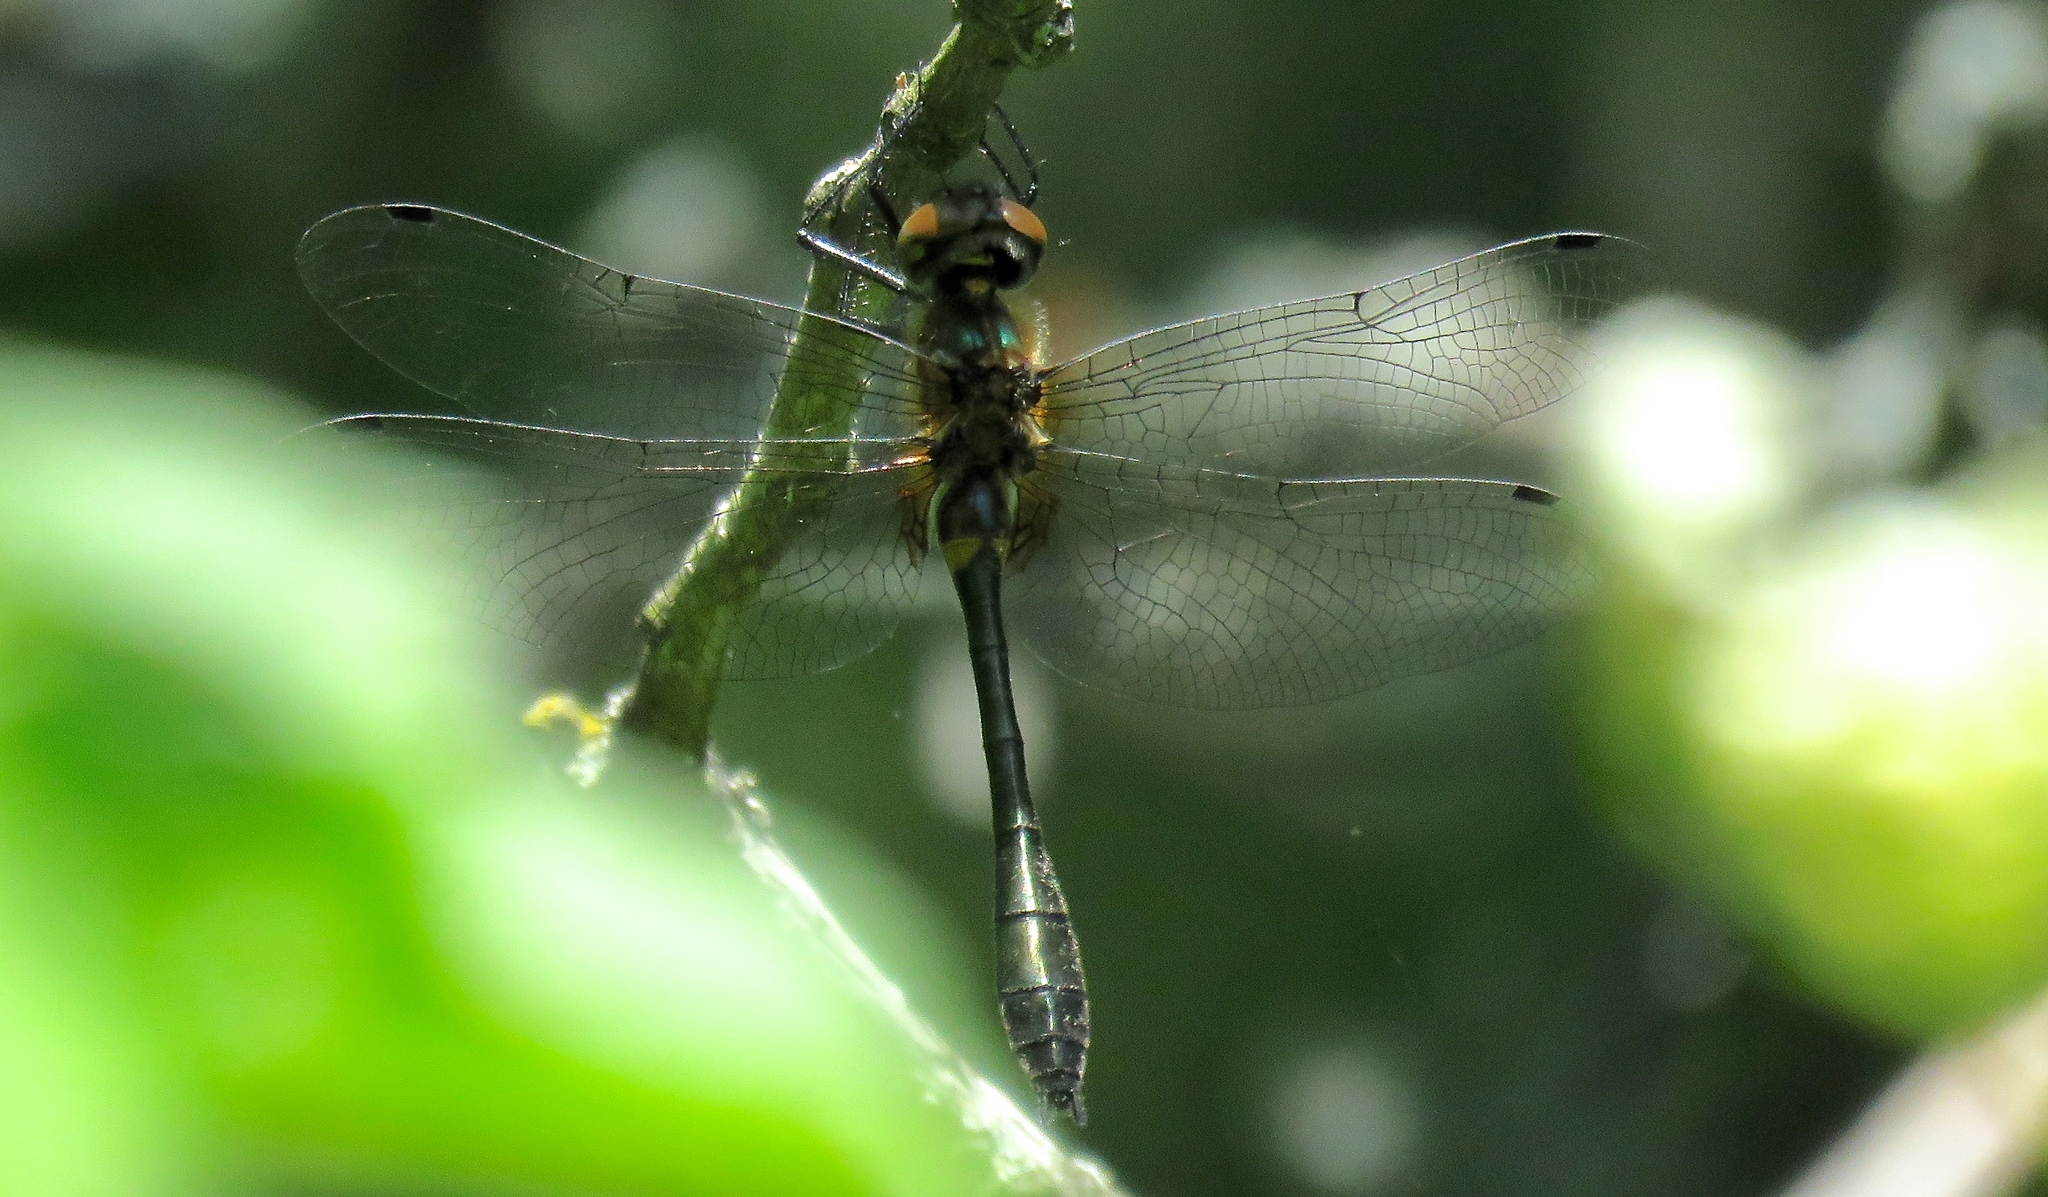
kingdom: Animalia
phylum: Arthropoda
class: Insecta
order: Odonata
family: Corduliidae
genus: Dorocordulia
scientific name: Dorocordulia libera
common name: Racket-tailed emerald
